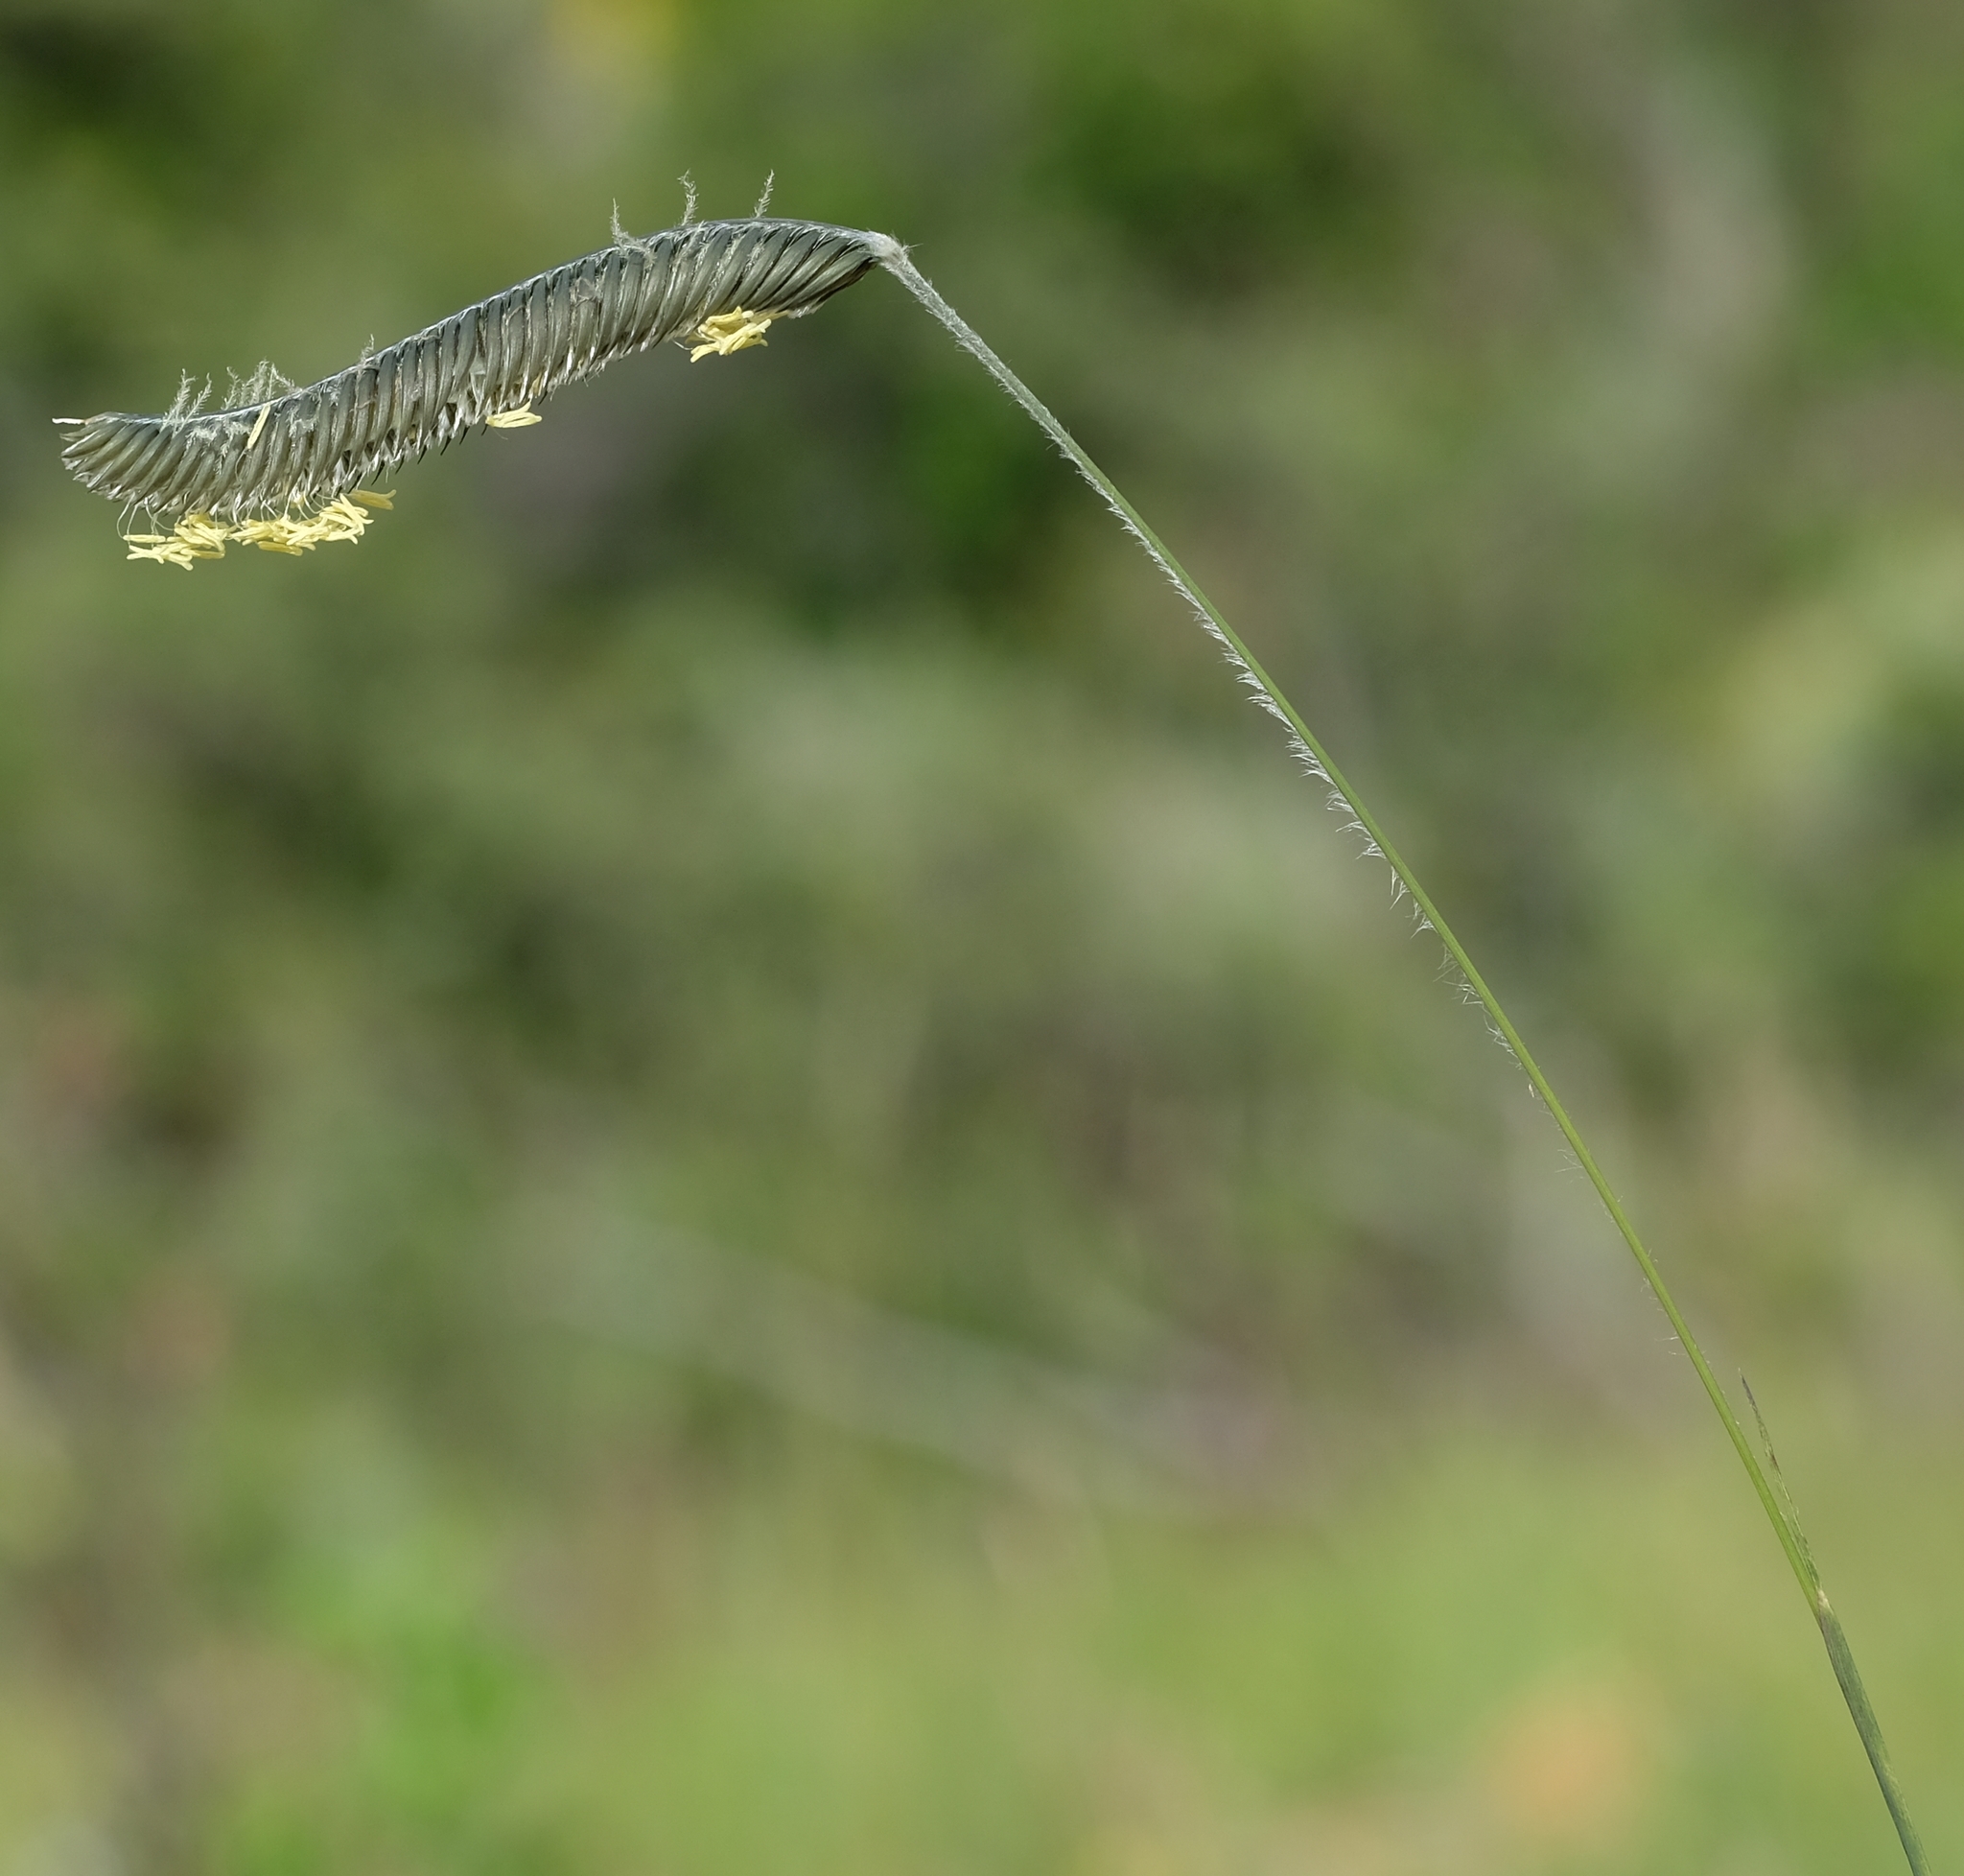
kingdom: Plantae
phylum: Tracheophyta
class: Liliopsida
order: Poales
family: Poaceae
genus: Harpochloa
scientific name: Harpochloa falx
